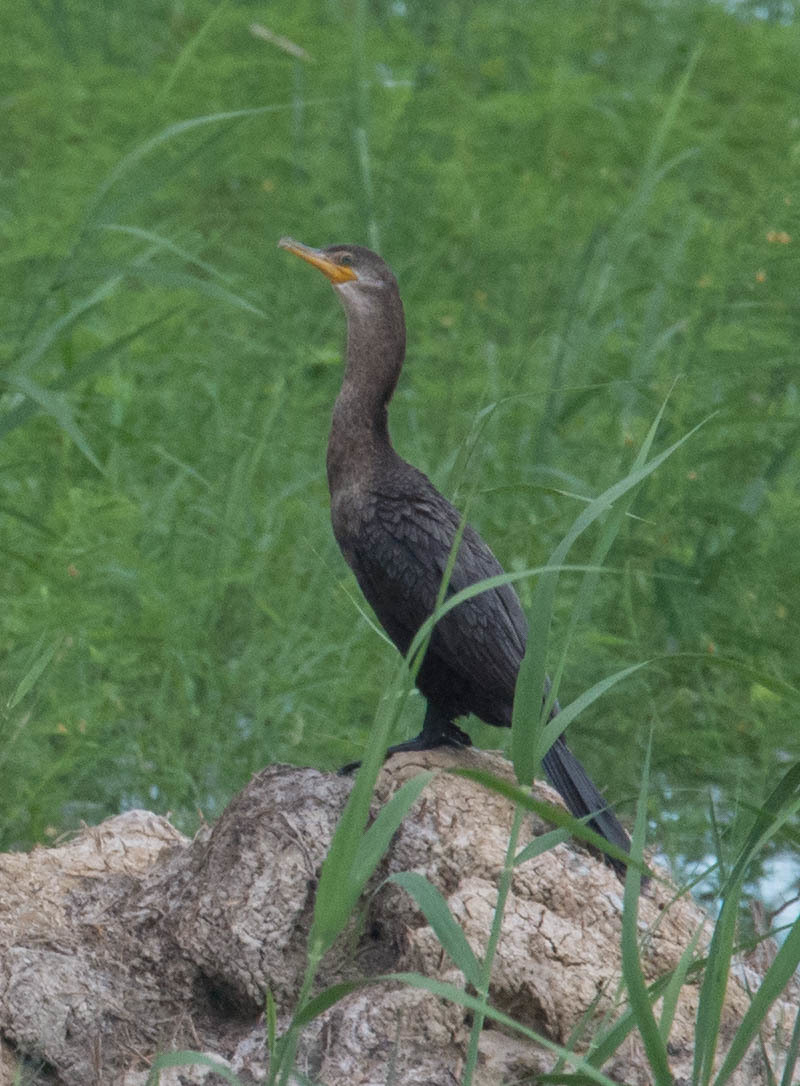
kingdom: Animalia
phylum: Chordata
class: Aves
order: Suliformes
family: Phalacrocoracidae
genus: Phalacrocorax
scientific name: Phalacrocorax brasilianus
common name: Neotropic cormorant
